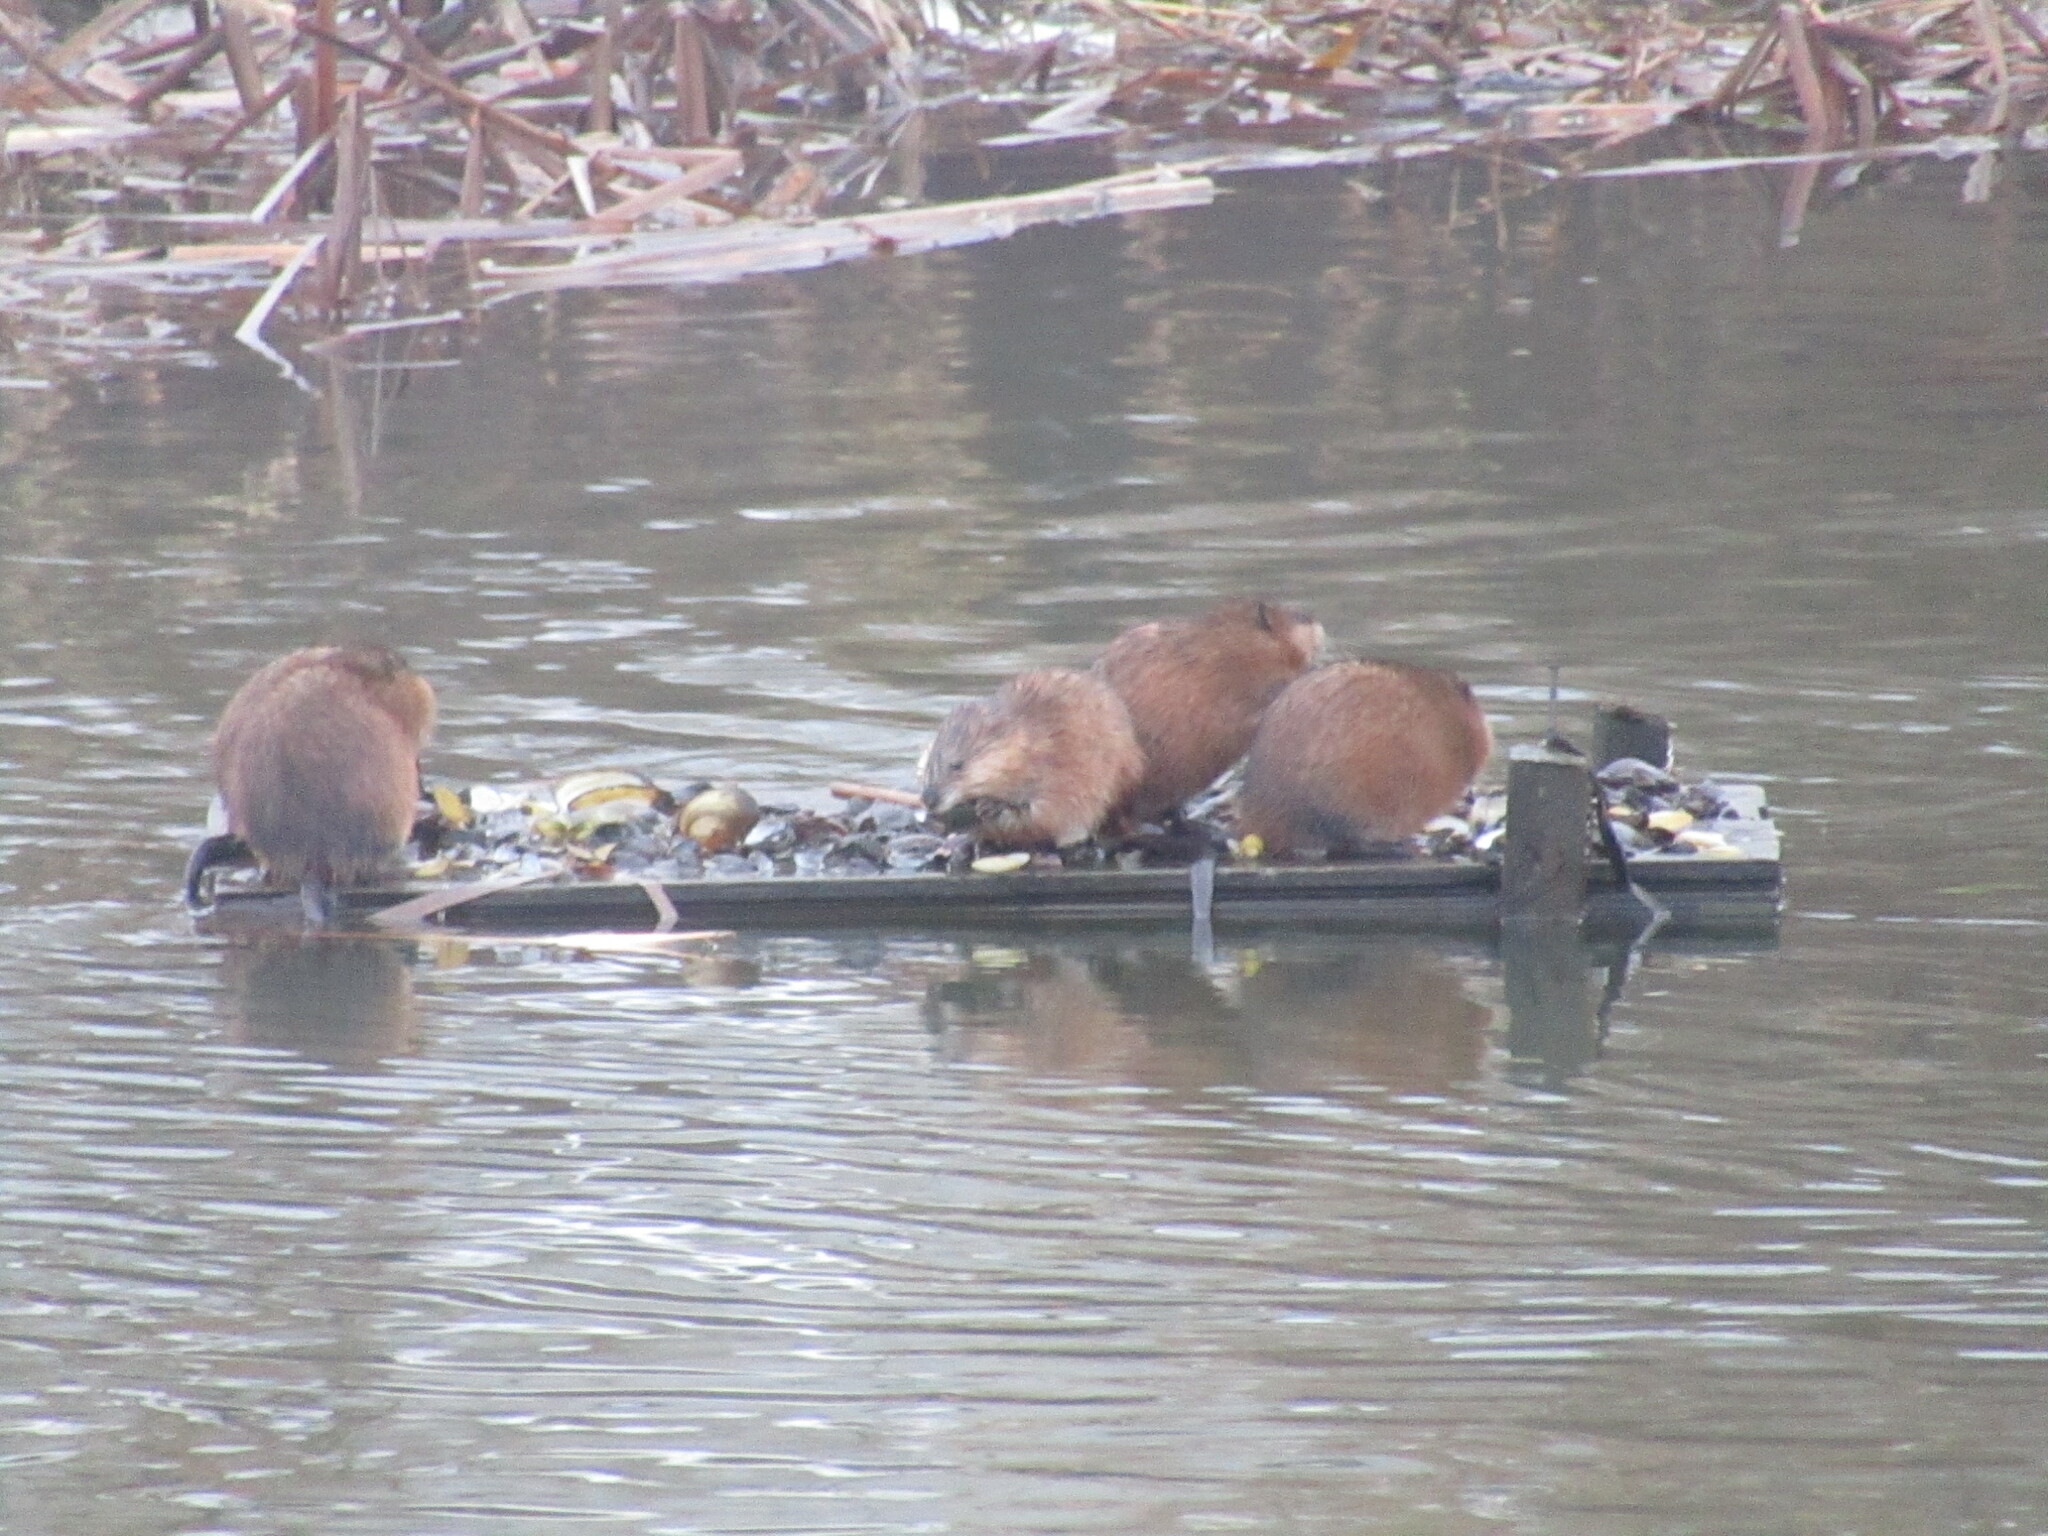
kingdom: Animalia
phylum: Chordata
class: Mammalia
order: Rodentia
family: Cricetidae
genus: Ondatra
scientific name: Ondatra zibethicus
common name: Muskrat
